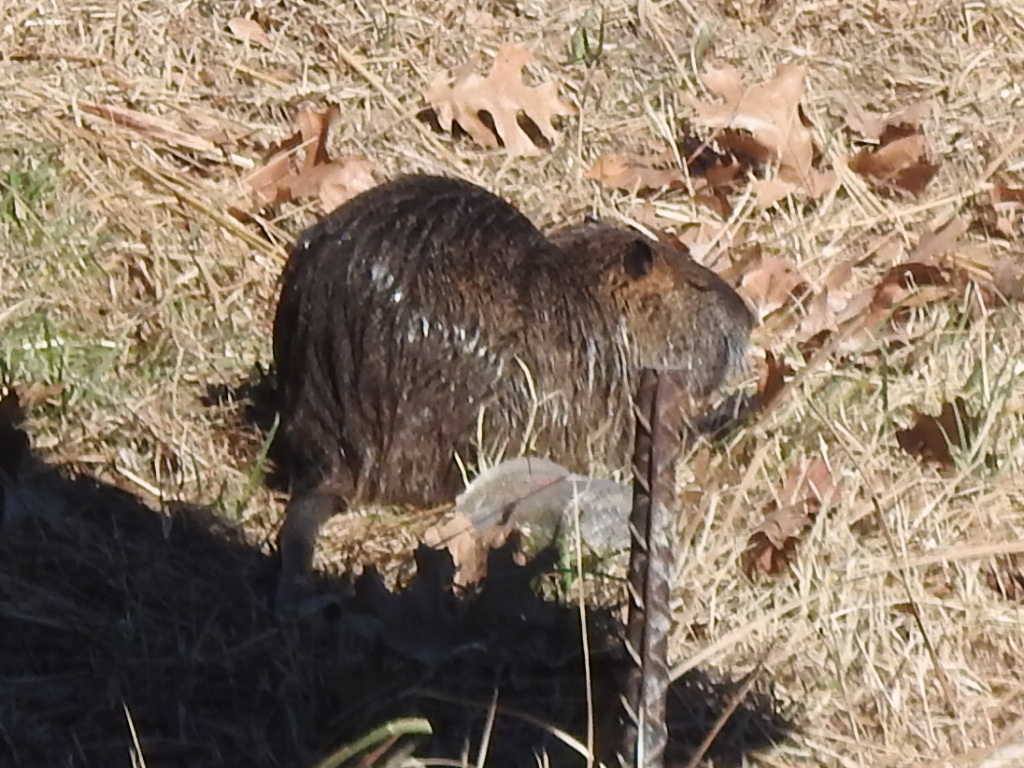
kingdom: Animalia
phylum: Chordata
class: Mammalia
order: Rodentia
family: Myocastoridae
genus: Myocastor
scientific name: Myocastor coypus
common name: Coypu
